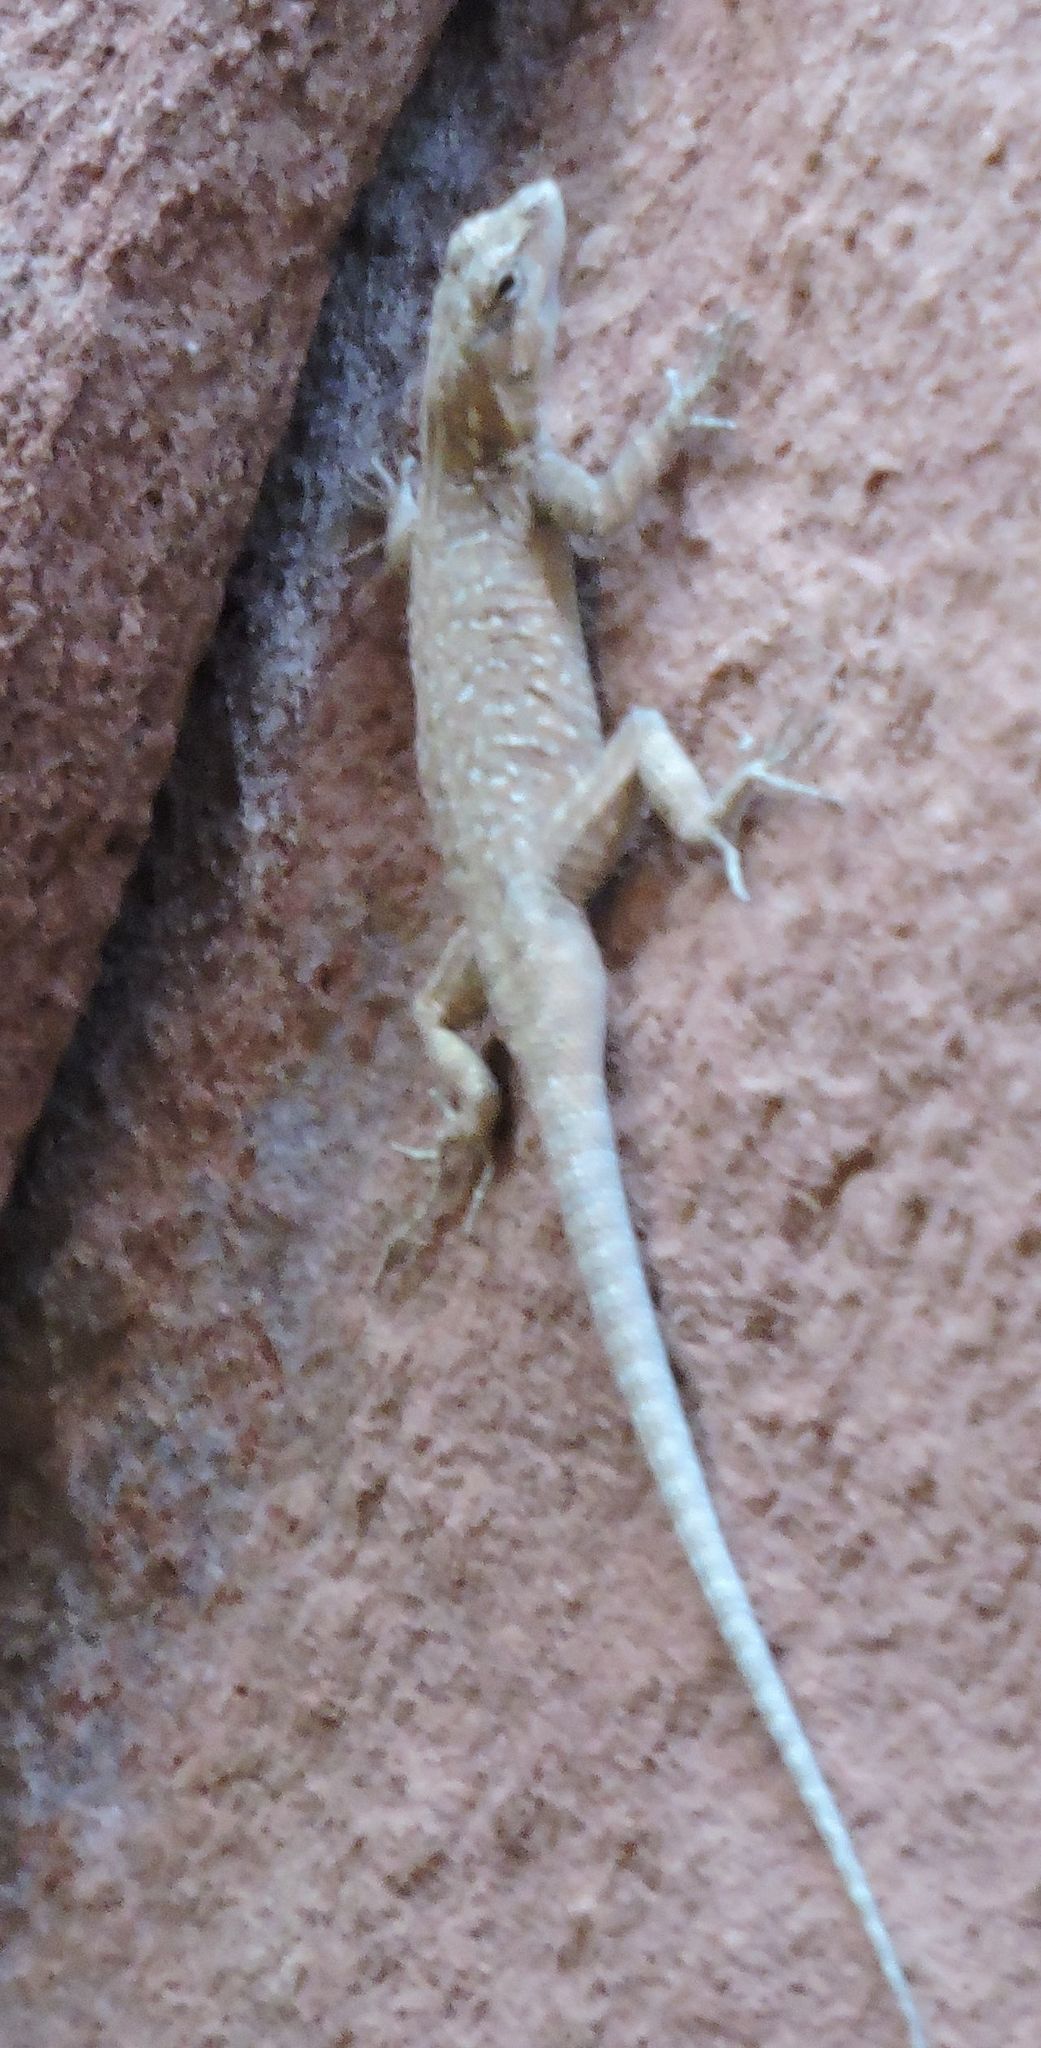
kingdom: Animalia
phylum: Chordata
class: Squamata
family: Phrynosomatidae
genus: Uta
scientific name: Uta stansburiana
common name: Side-blotched lizard
